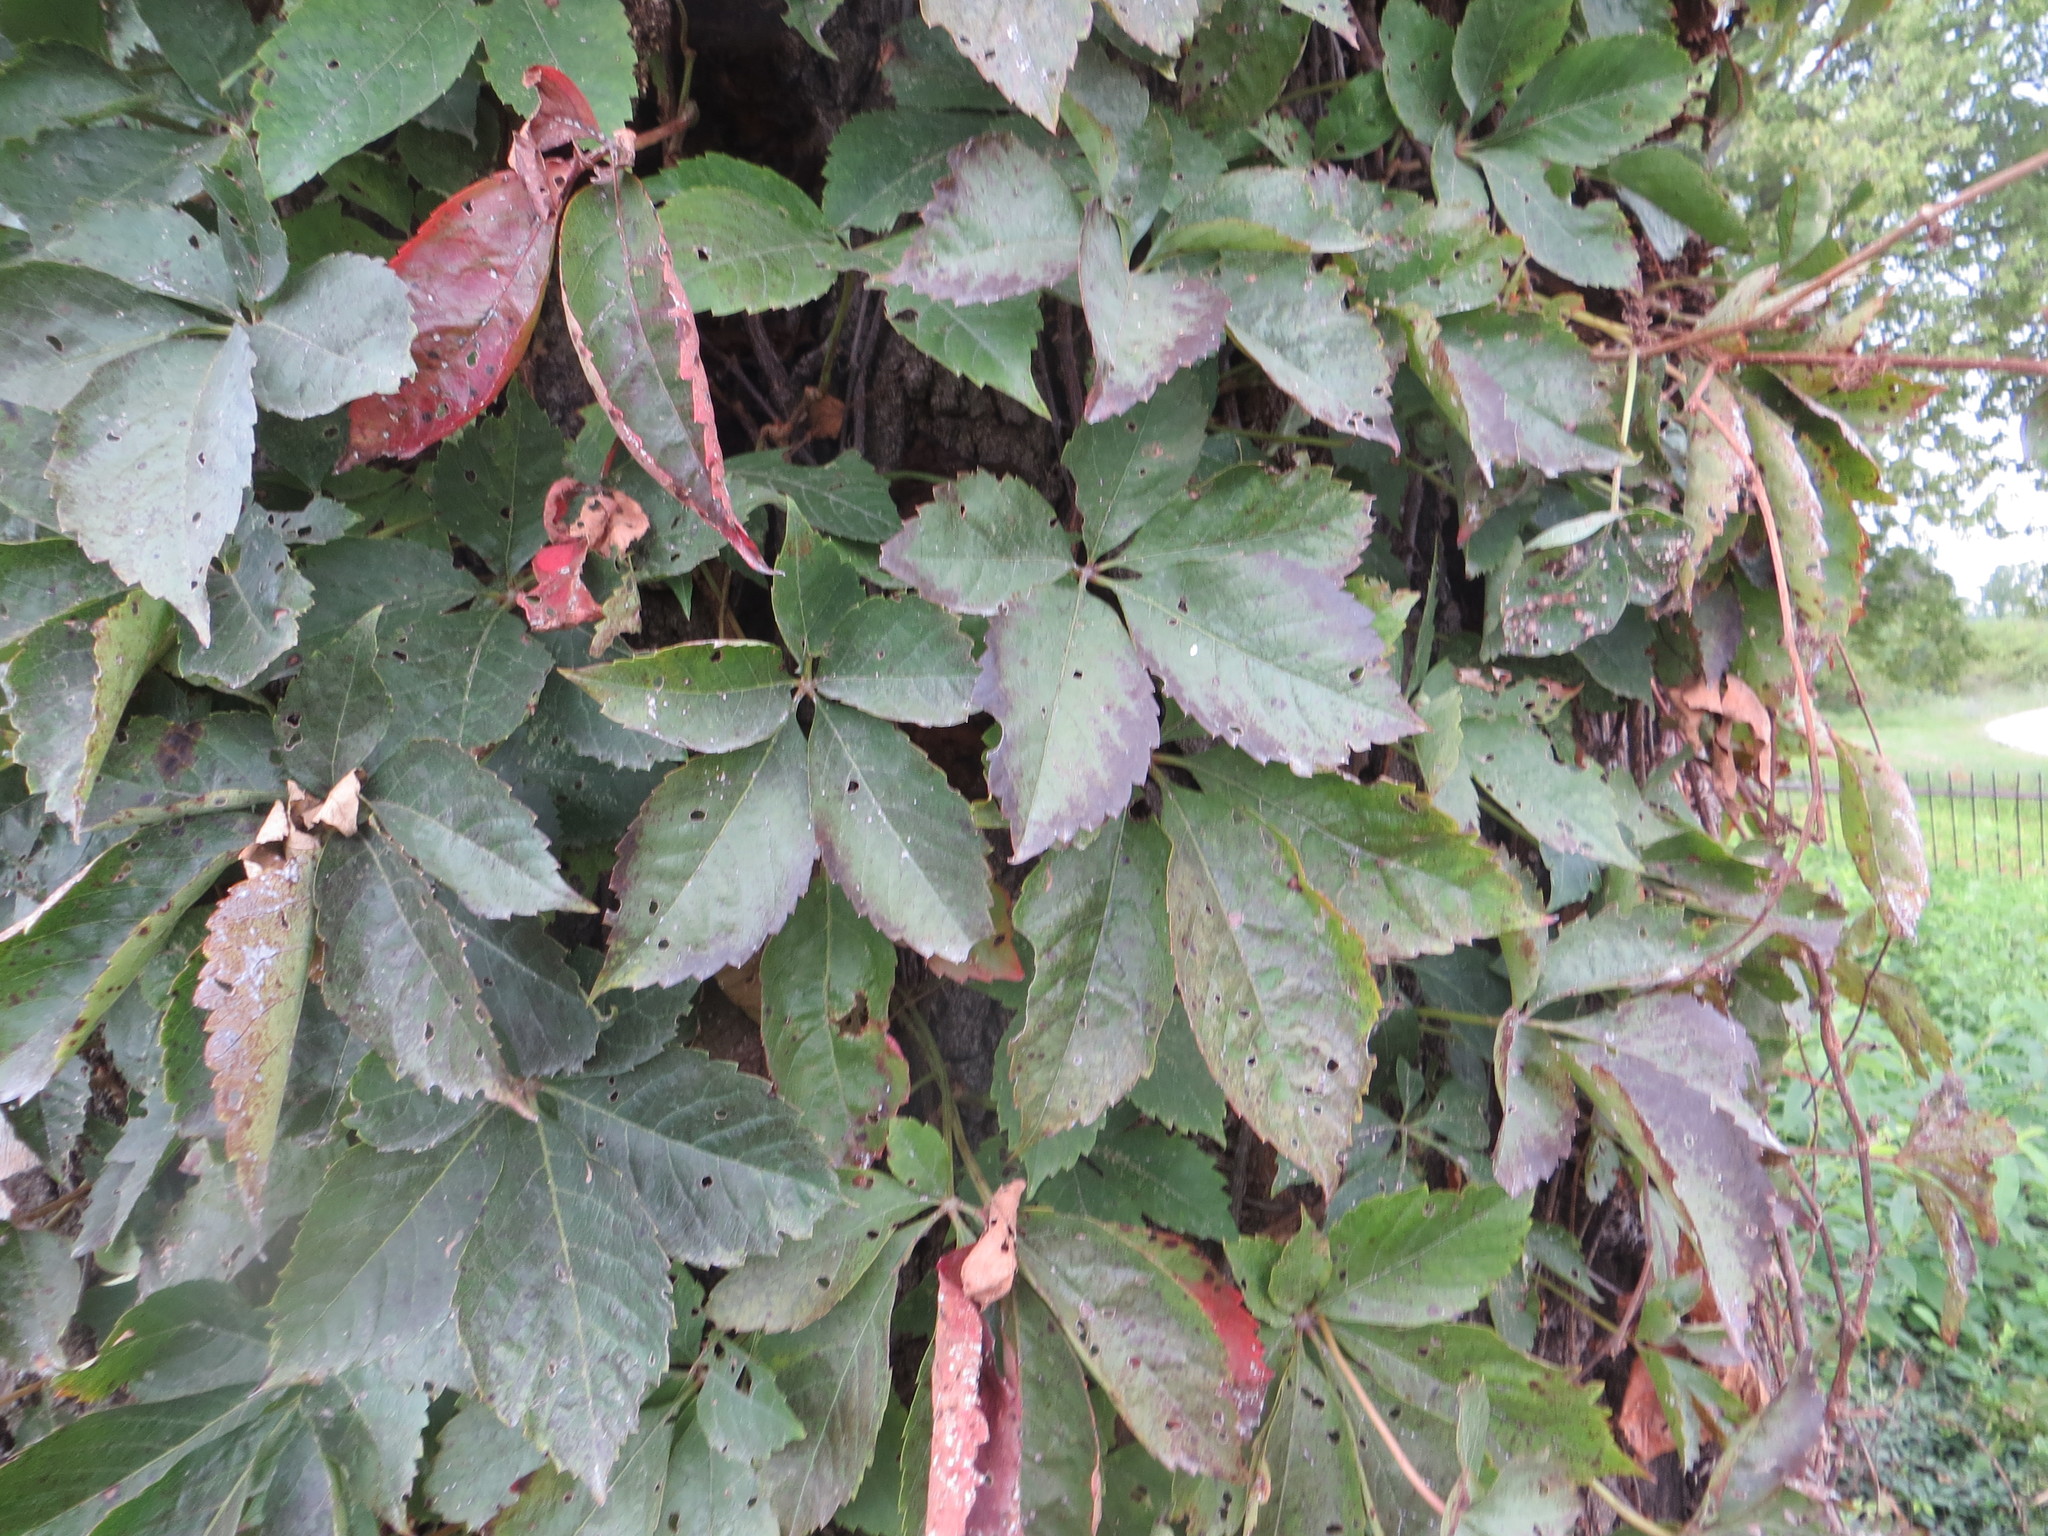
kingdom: Plantae
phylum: Tracheophyta
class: Magnoliopsida
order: Vitales
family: Vitaceae
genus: Parthenocissus
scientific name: Parthenocissus quinquefolia
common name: Virginia-creeper
